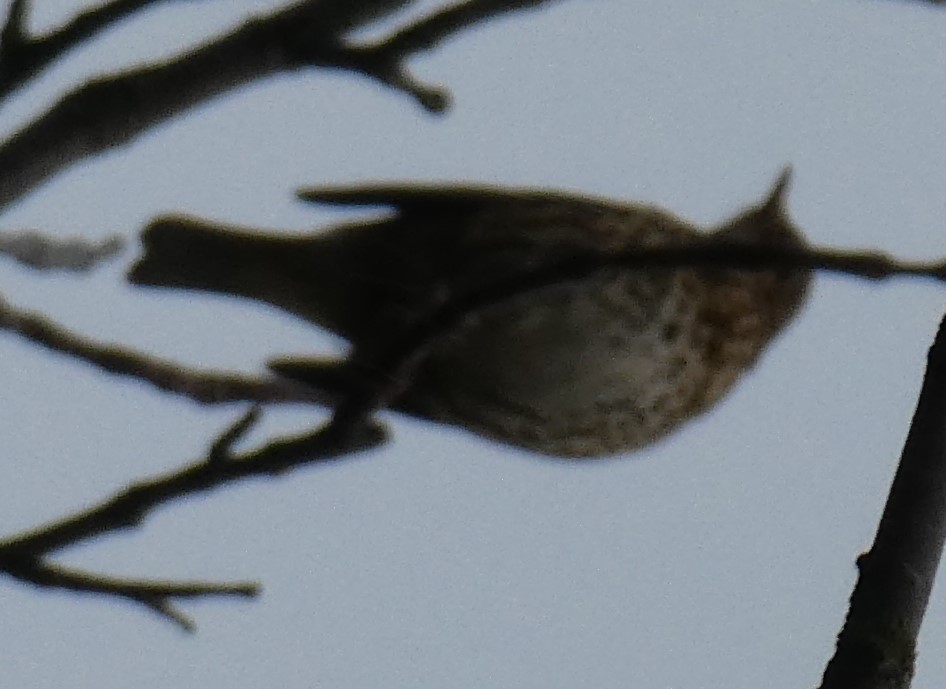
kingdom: Animalia
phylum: Chordata
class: Aves
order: Passeriformes
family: Turdidae
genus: Turdus
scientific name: Turdus philomelos
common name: Song thrush
